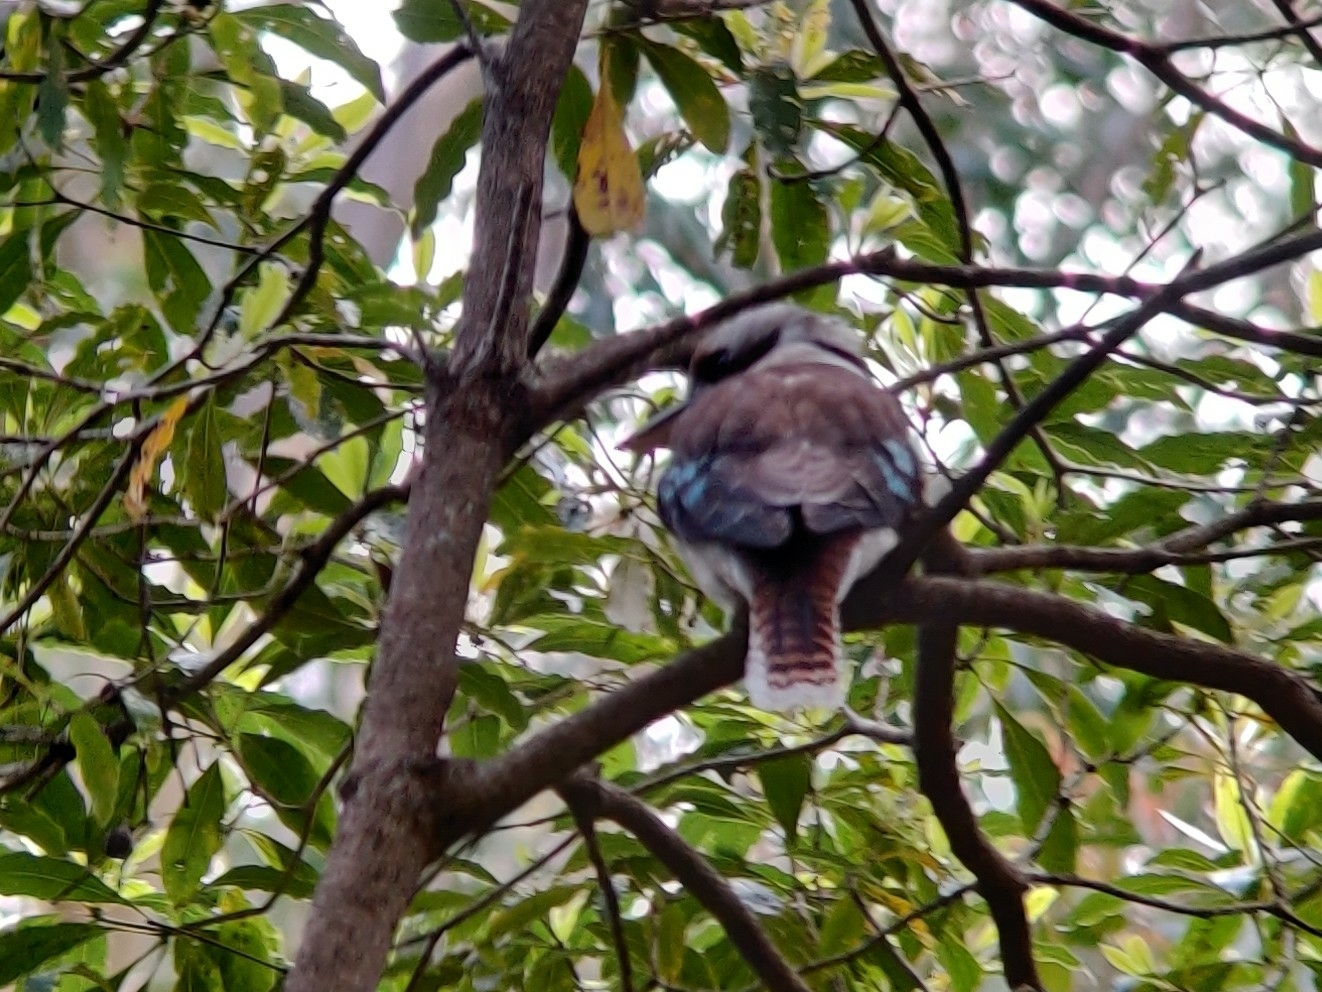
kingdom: Animalia
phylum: Chordata
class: Aves
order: Coraciiformes
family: Alcedinidae
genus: Dacelo
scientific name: Dacelo novaeguineae
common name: Laughing kookaburra
